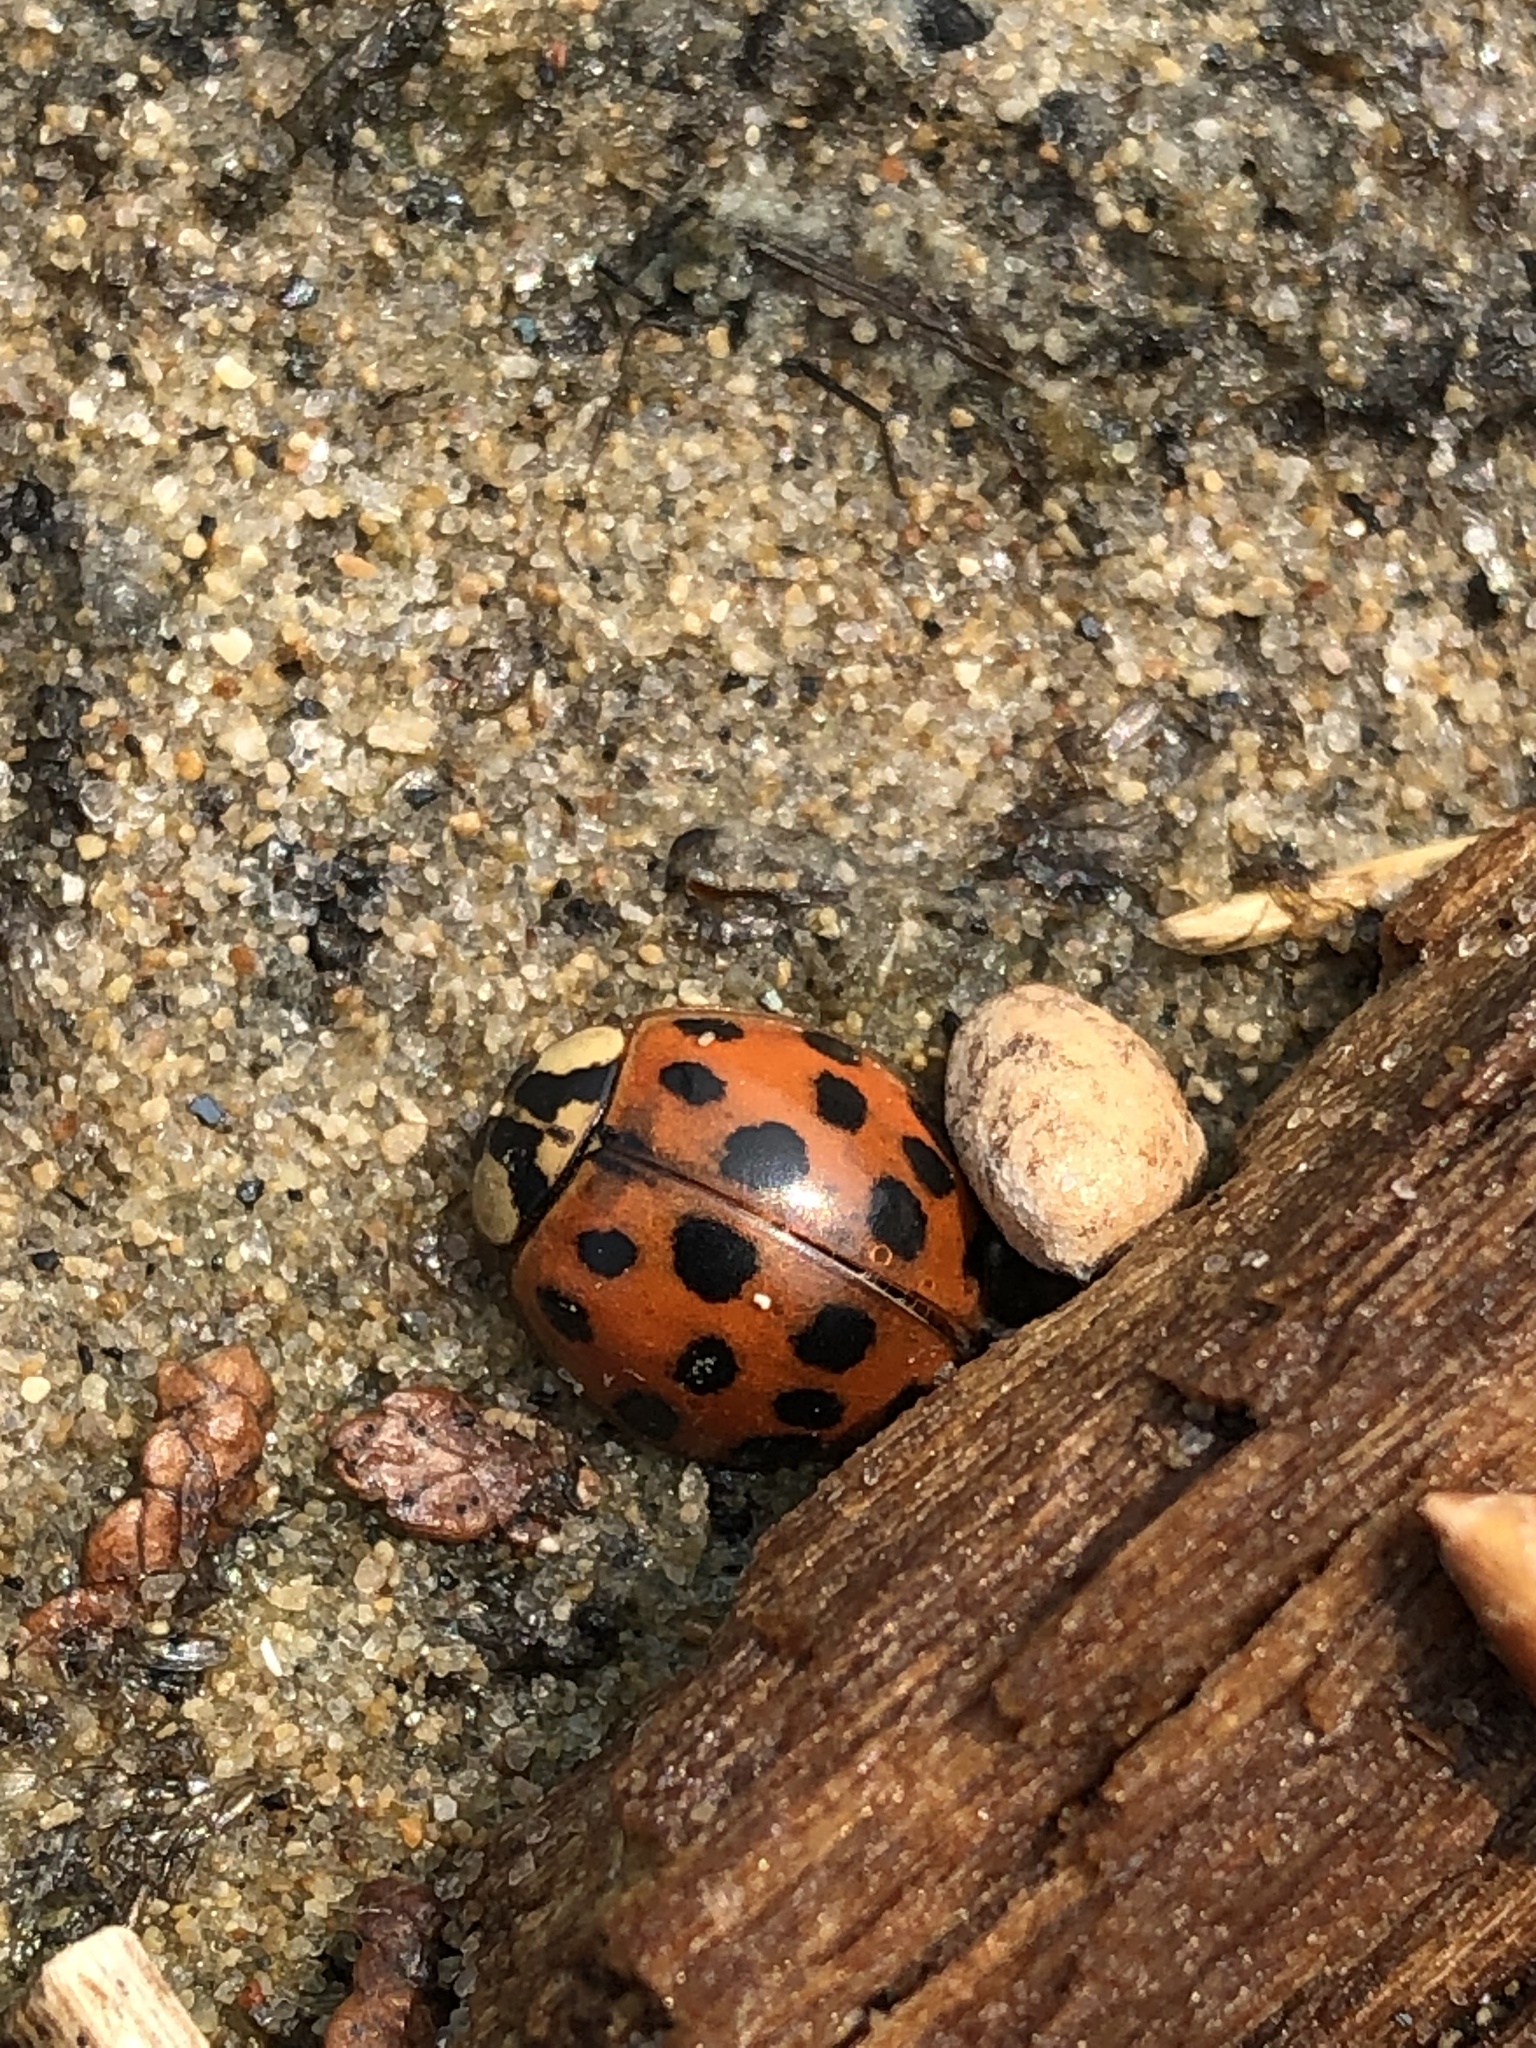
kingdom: Animalia
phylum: Arthropoda
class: Insecta
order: Coleoptera
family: Coccinellidae
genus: Harmonia
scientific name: Harmonia axyridis
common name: Harlequin ladybird
